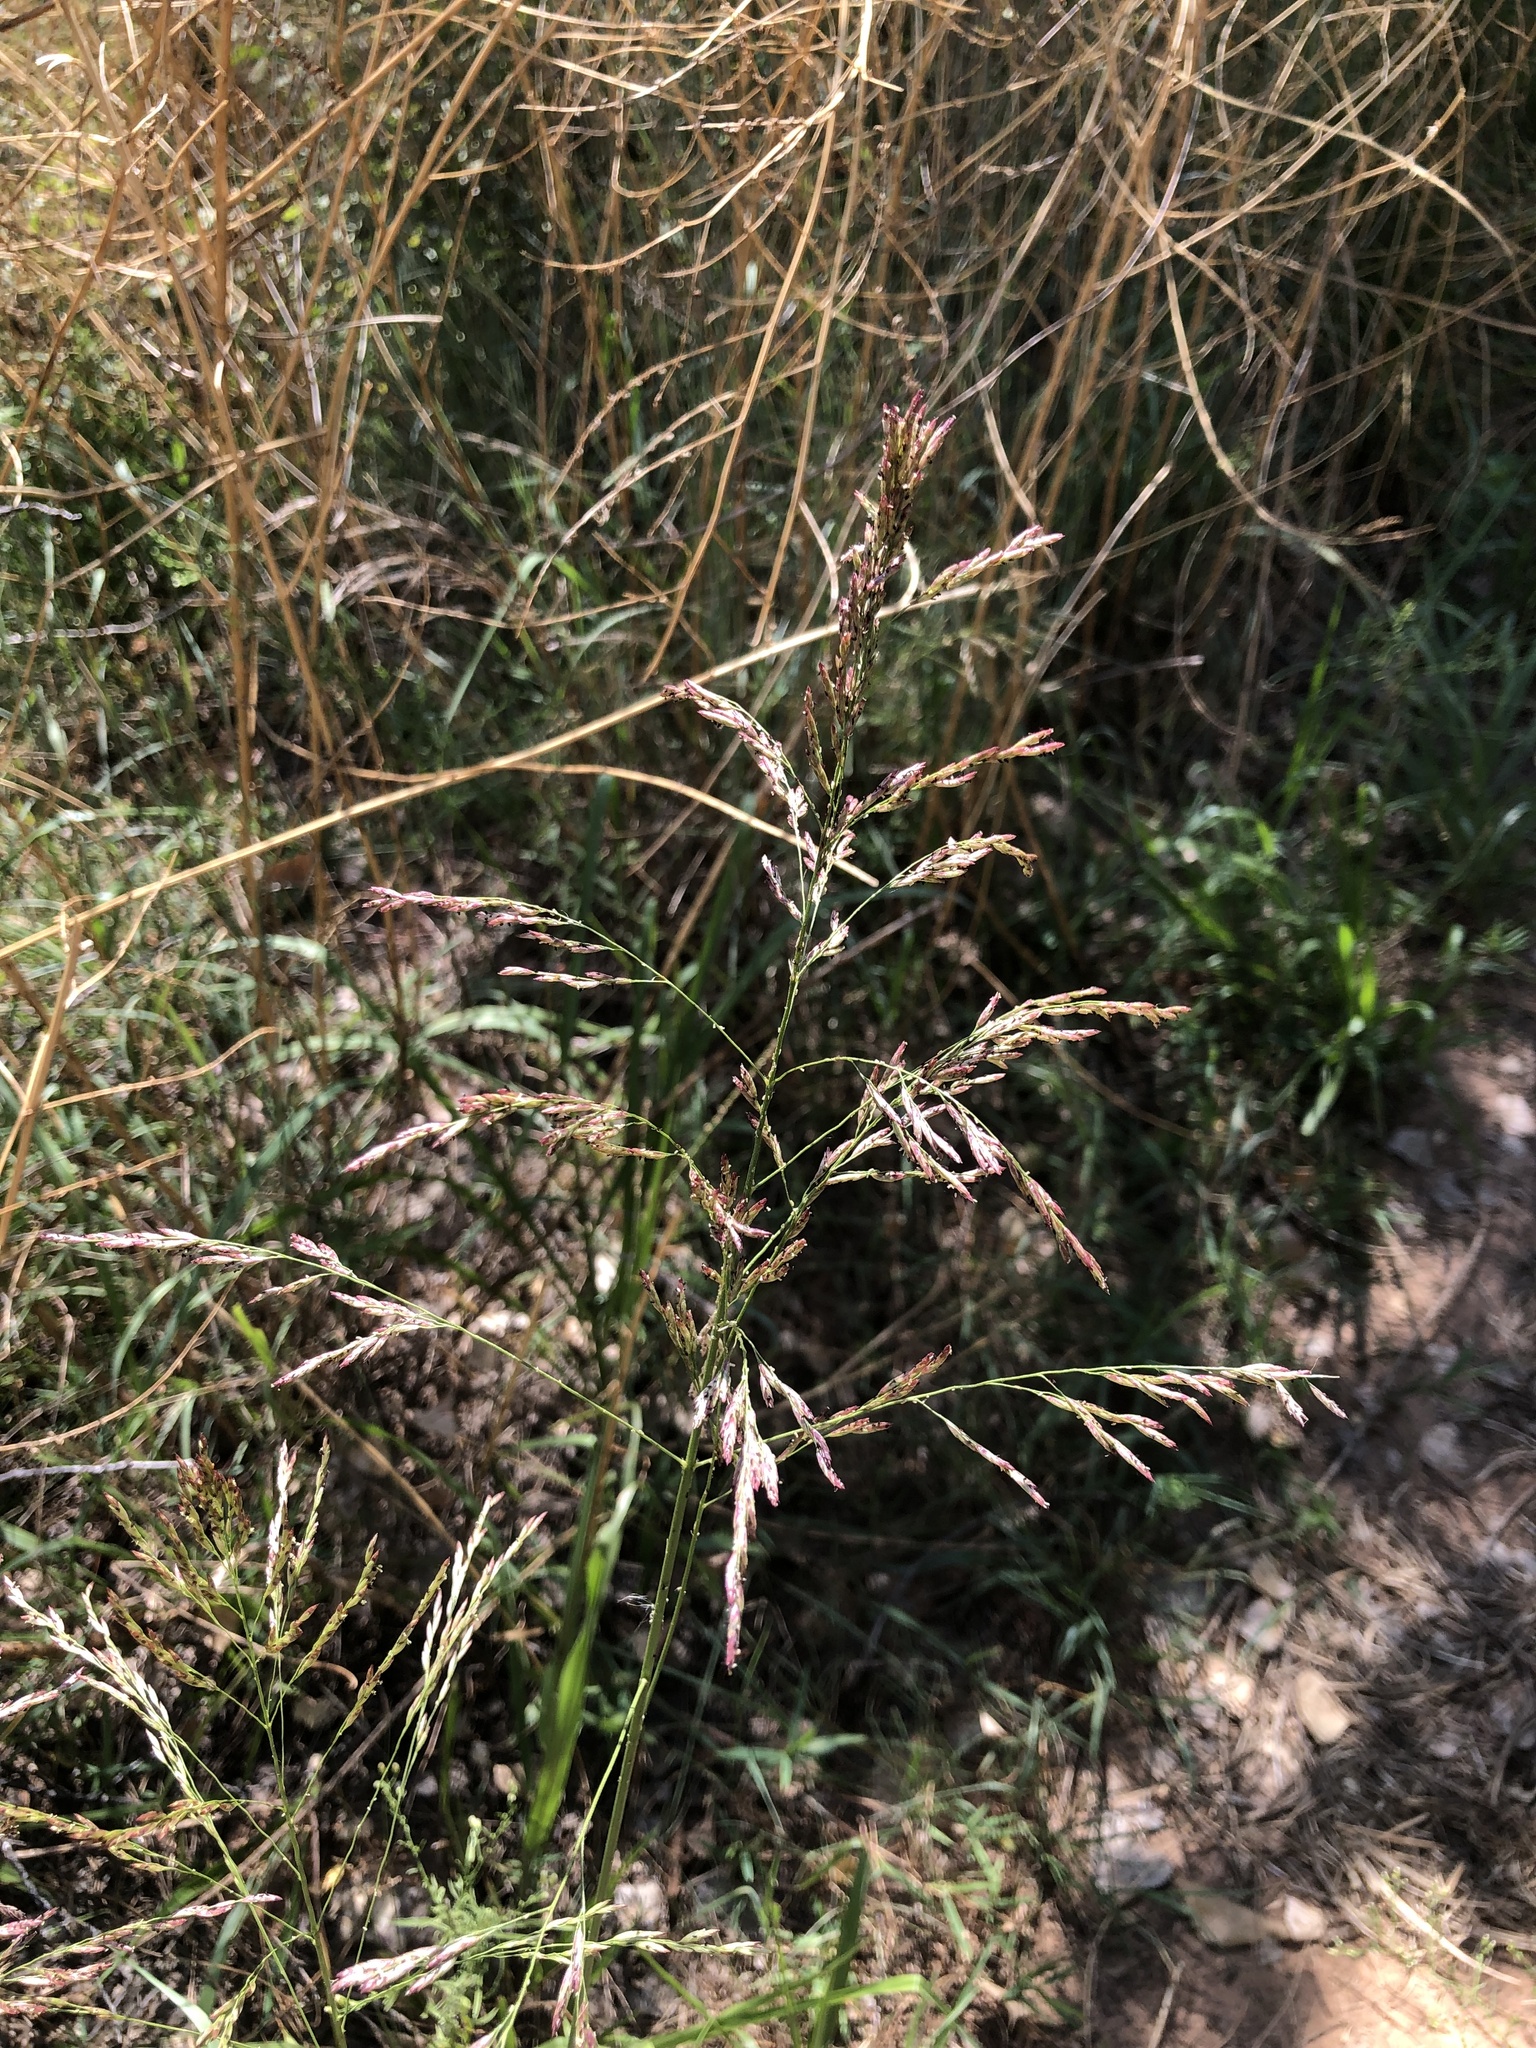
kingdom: Plantae
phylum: Tracheophyta
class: Liliopsida
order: Poales
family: Poaceae
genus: Tridens
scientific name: Tridens flavus
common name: Purpletop
